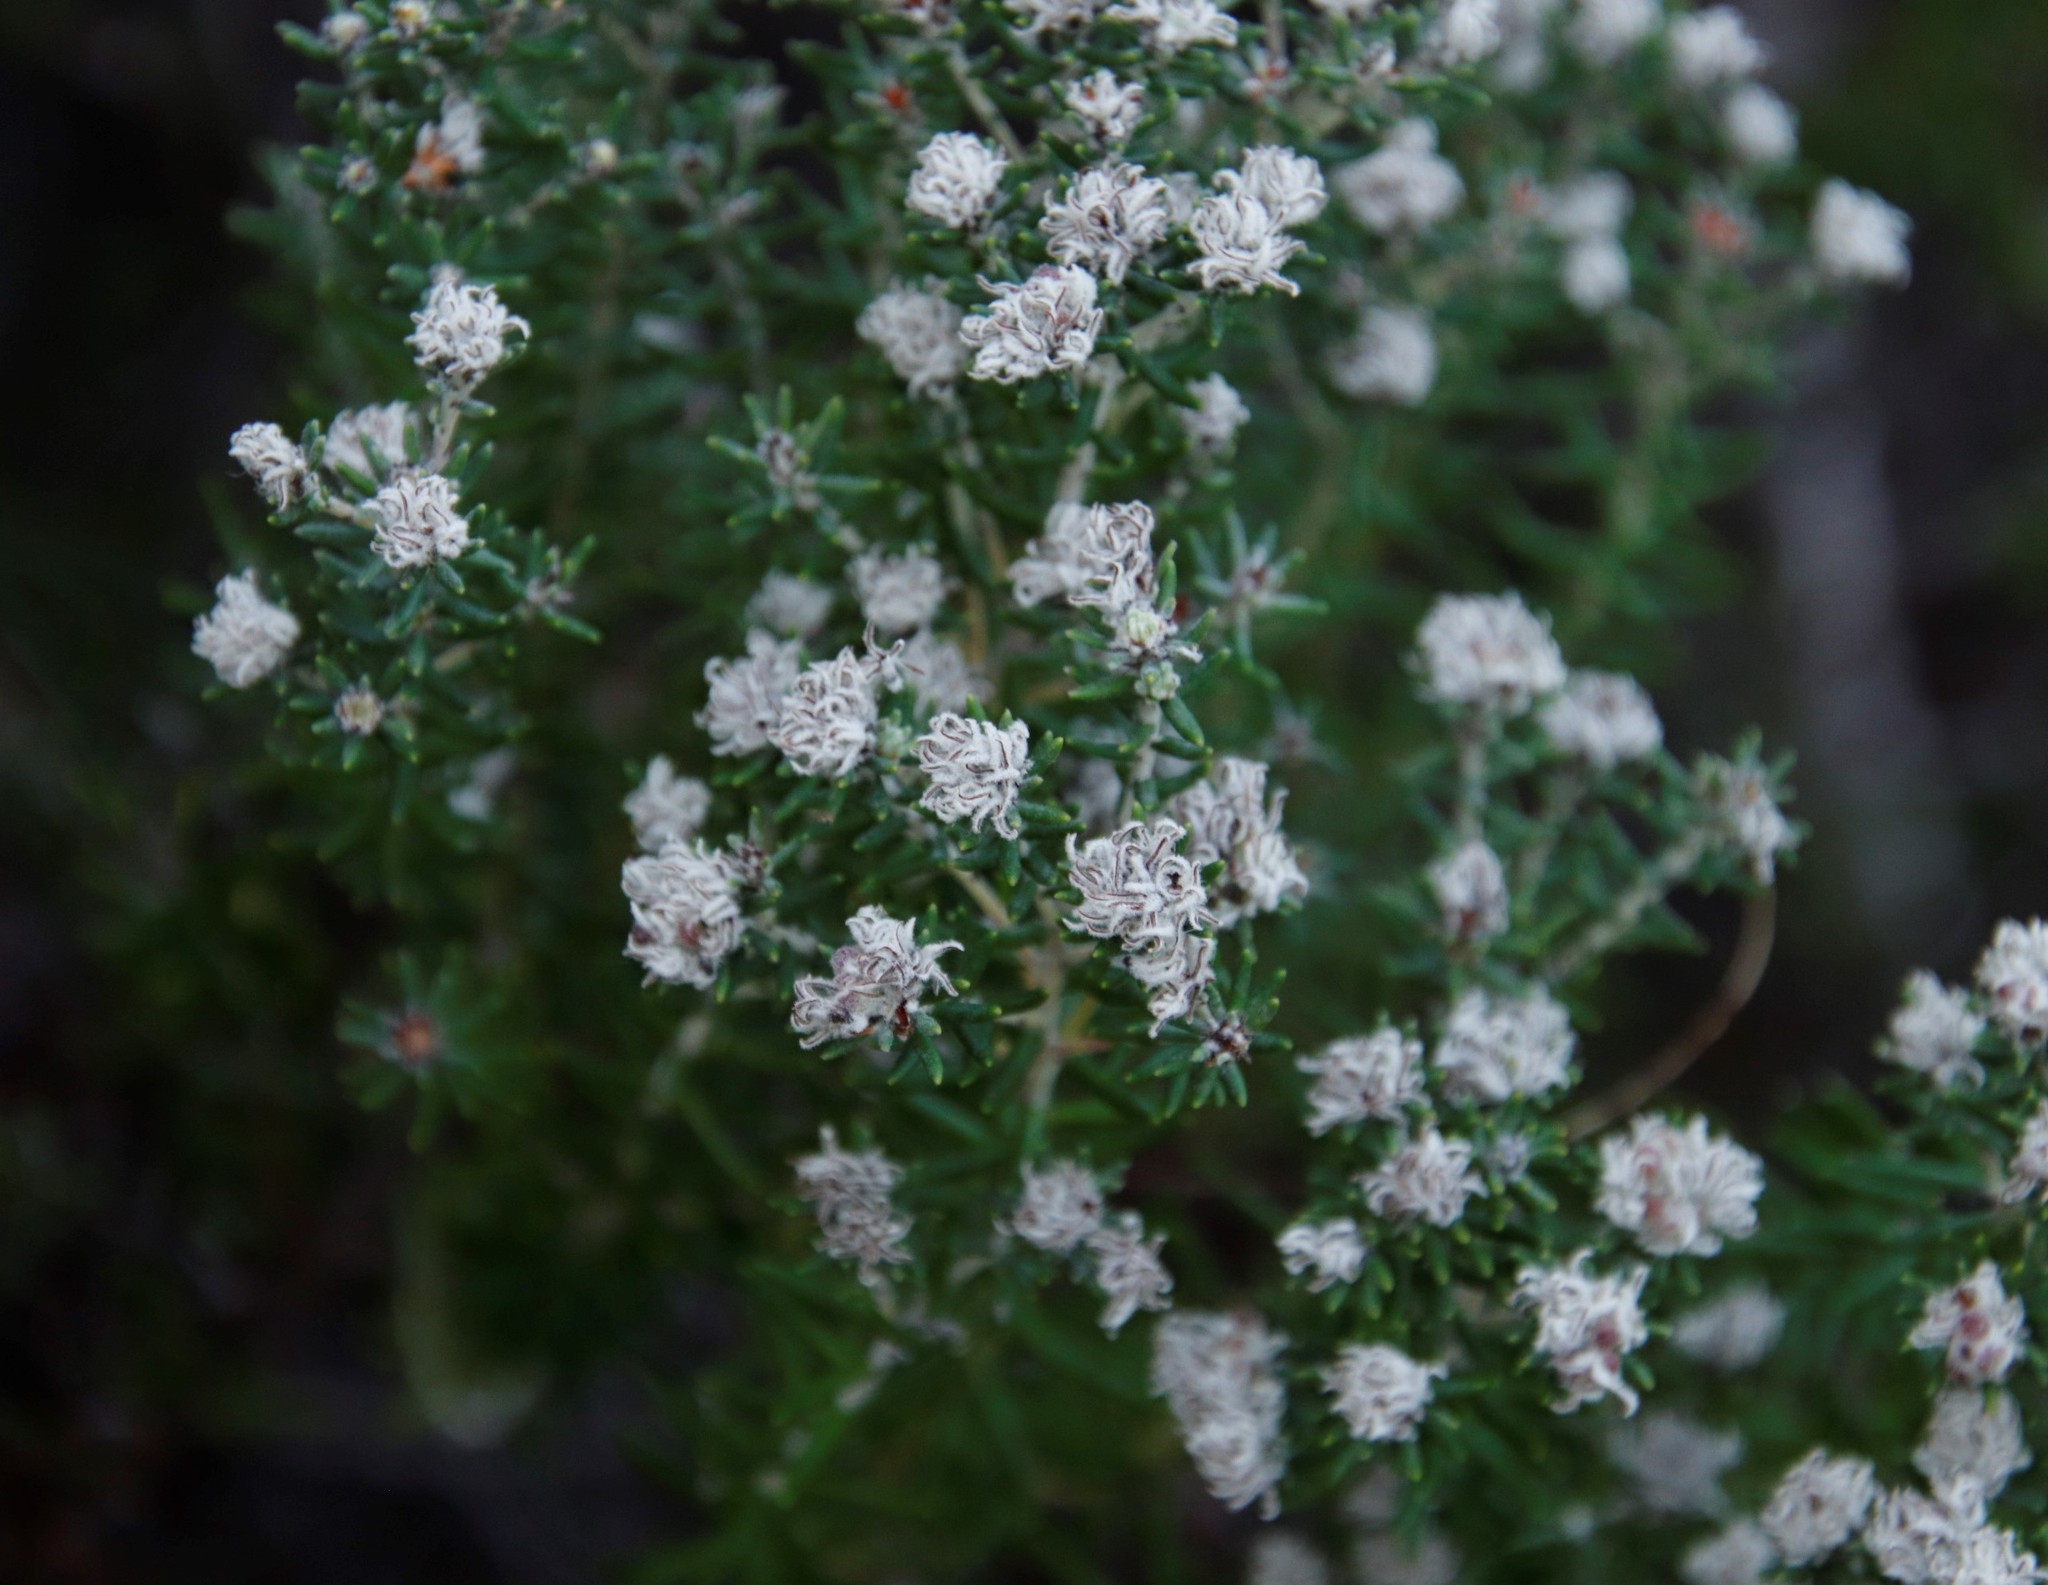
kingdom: Plantae
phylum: Tracheophyta
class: Magnoliopsida
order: Rosales
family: Rhamnaceae
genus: Trichocephalus
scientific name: Trichocephalus stipularis
